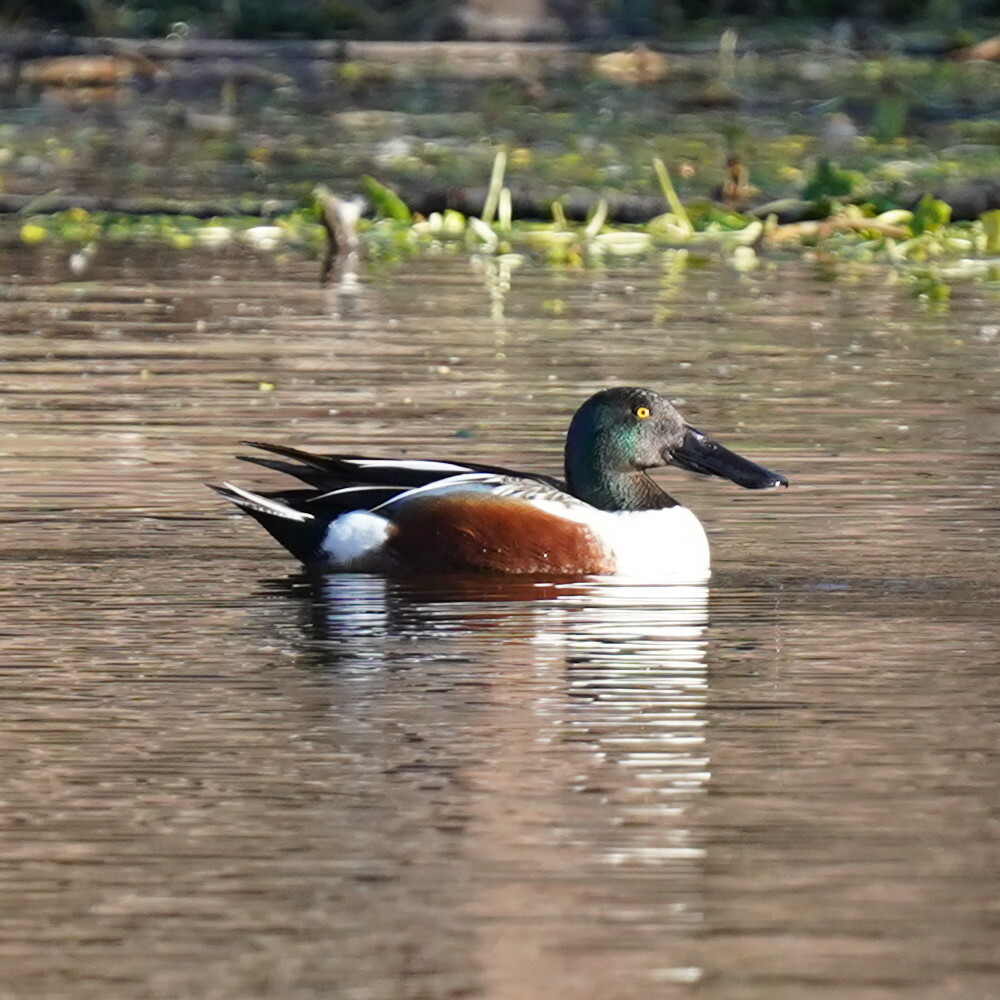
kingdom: Animalia
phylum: Chordata
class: Aves
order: Anseriformes
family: Anatidae
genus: Spatula
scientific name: Spatula clypeata
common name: Northern shoveler
